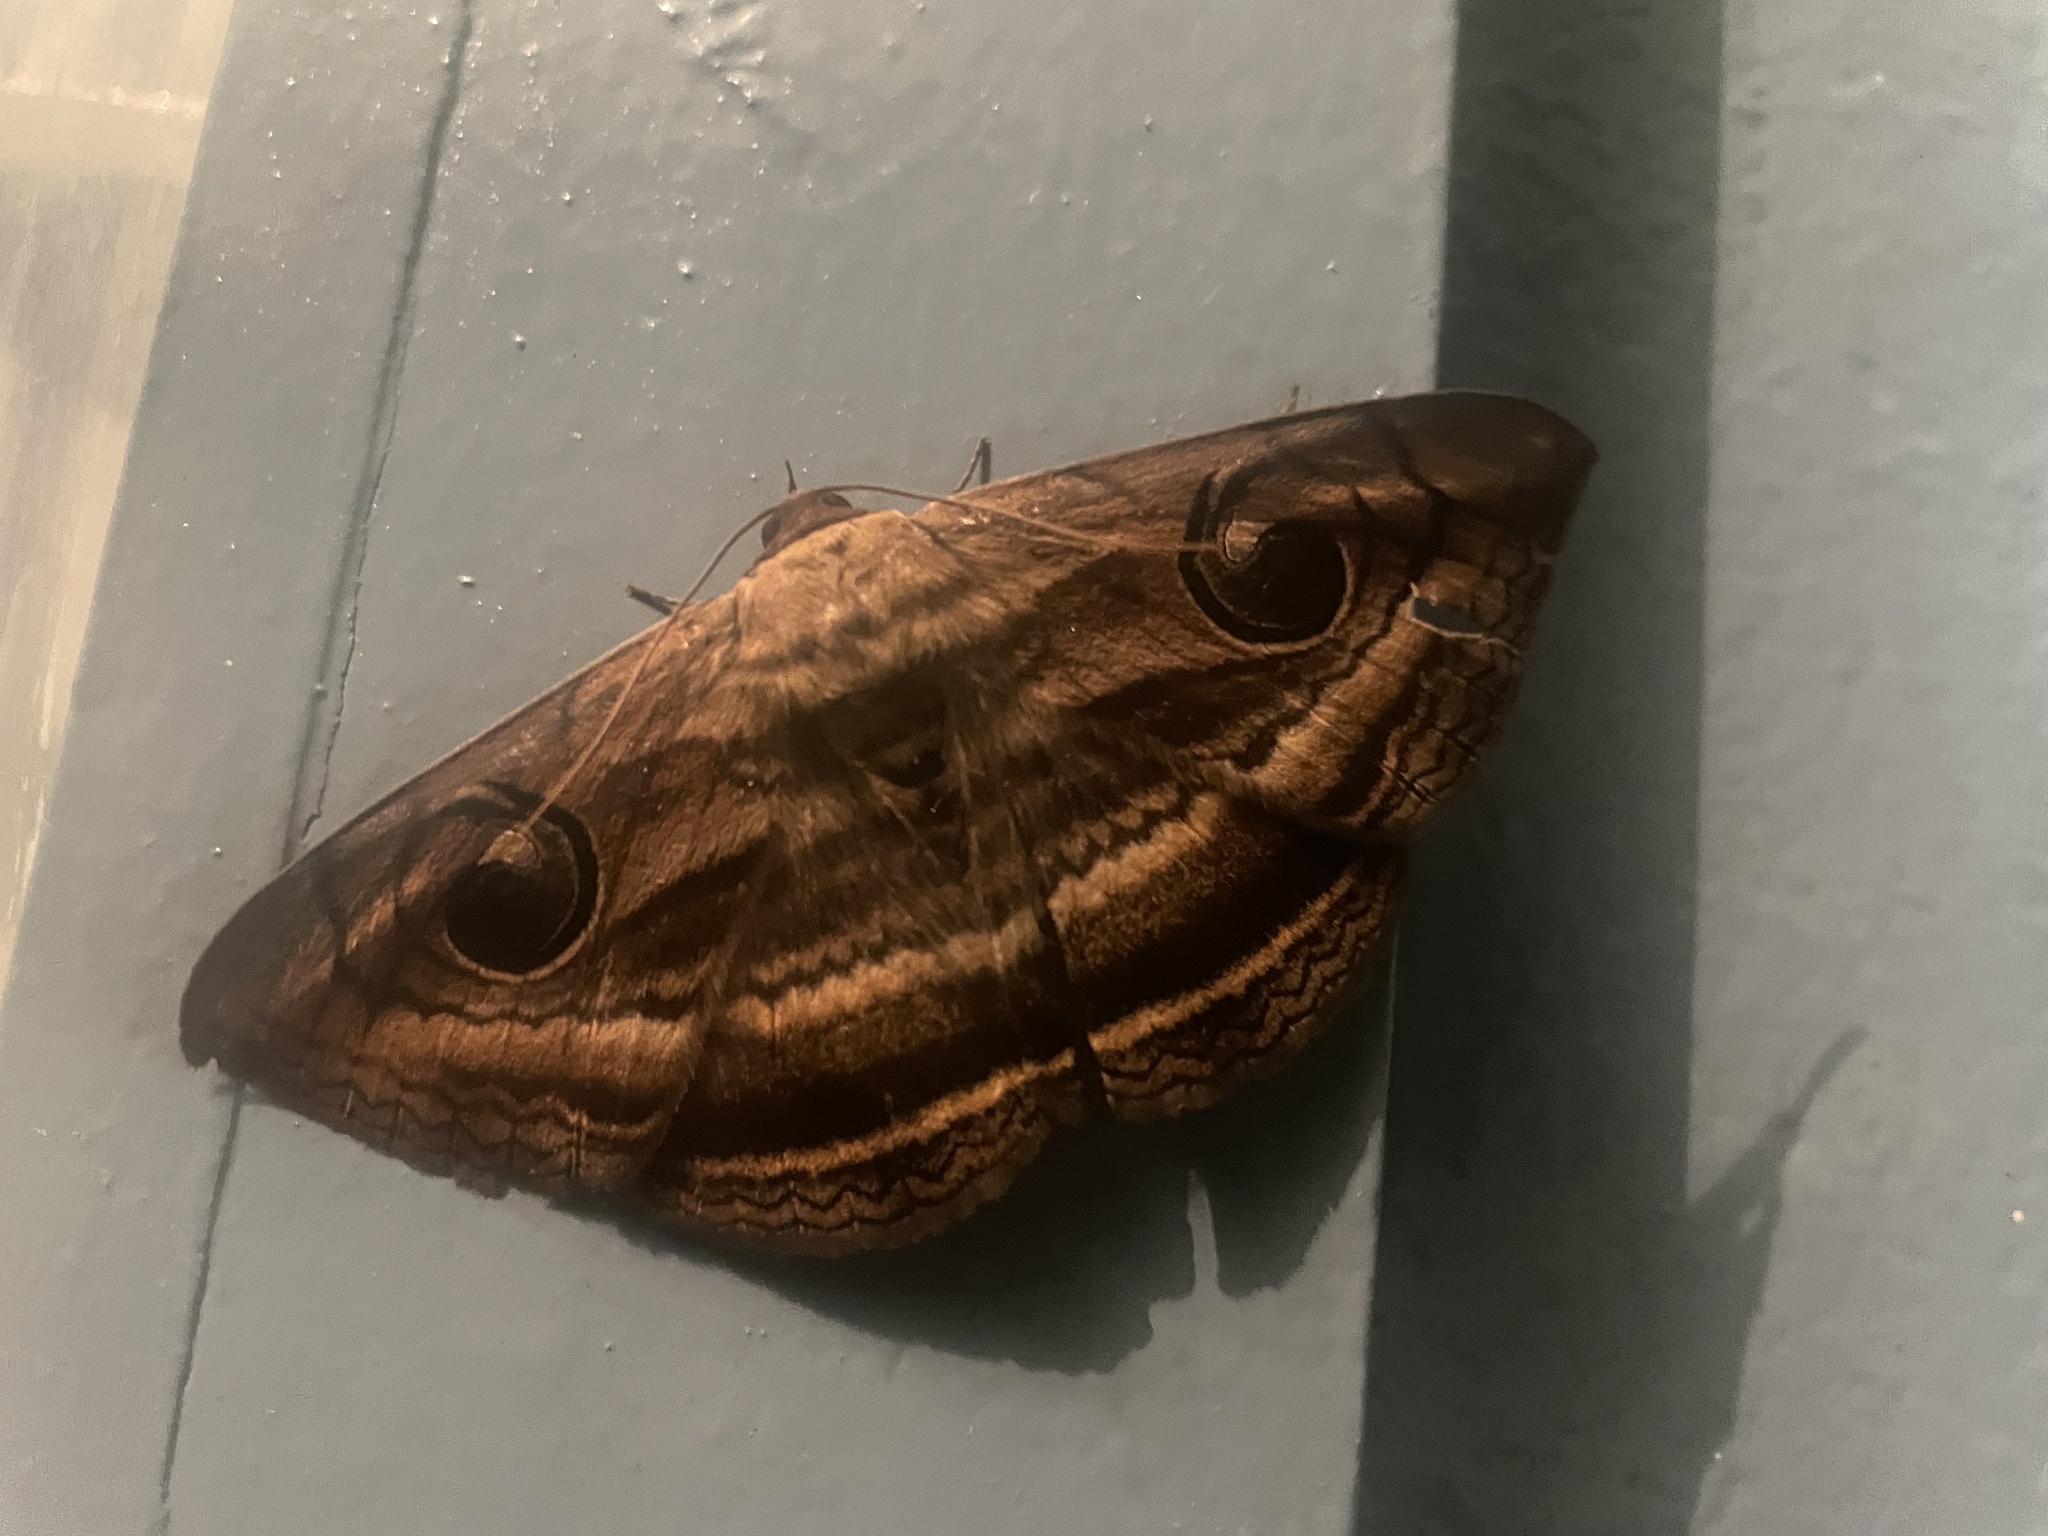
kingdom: Animalia
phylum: Arthropoda
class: Insecta
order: Lepidoptera
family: Erebidae
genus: Spirama
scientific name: Spirama retorta
